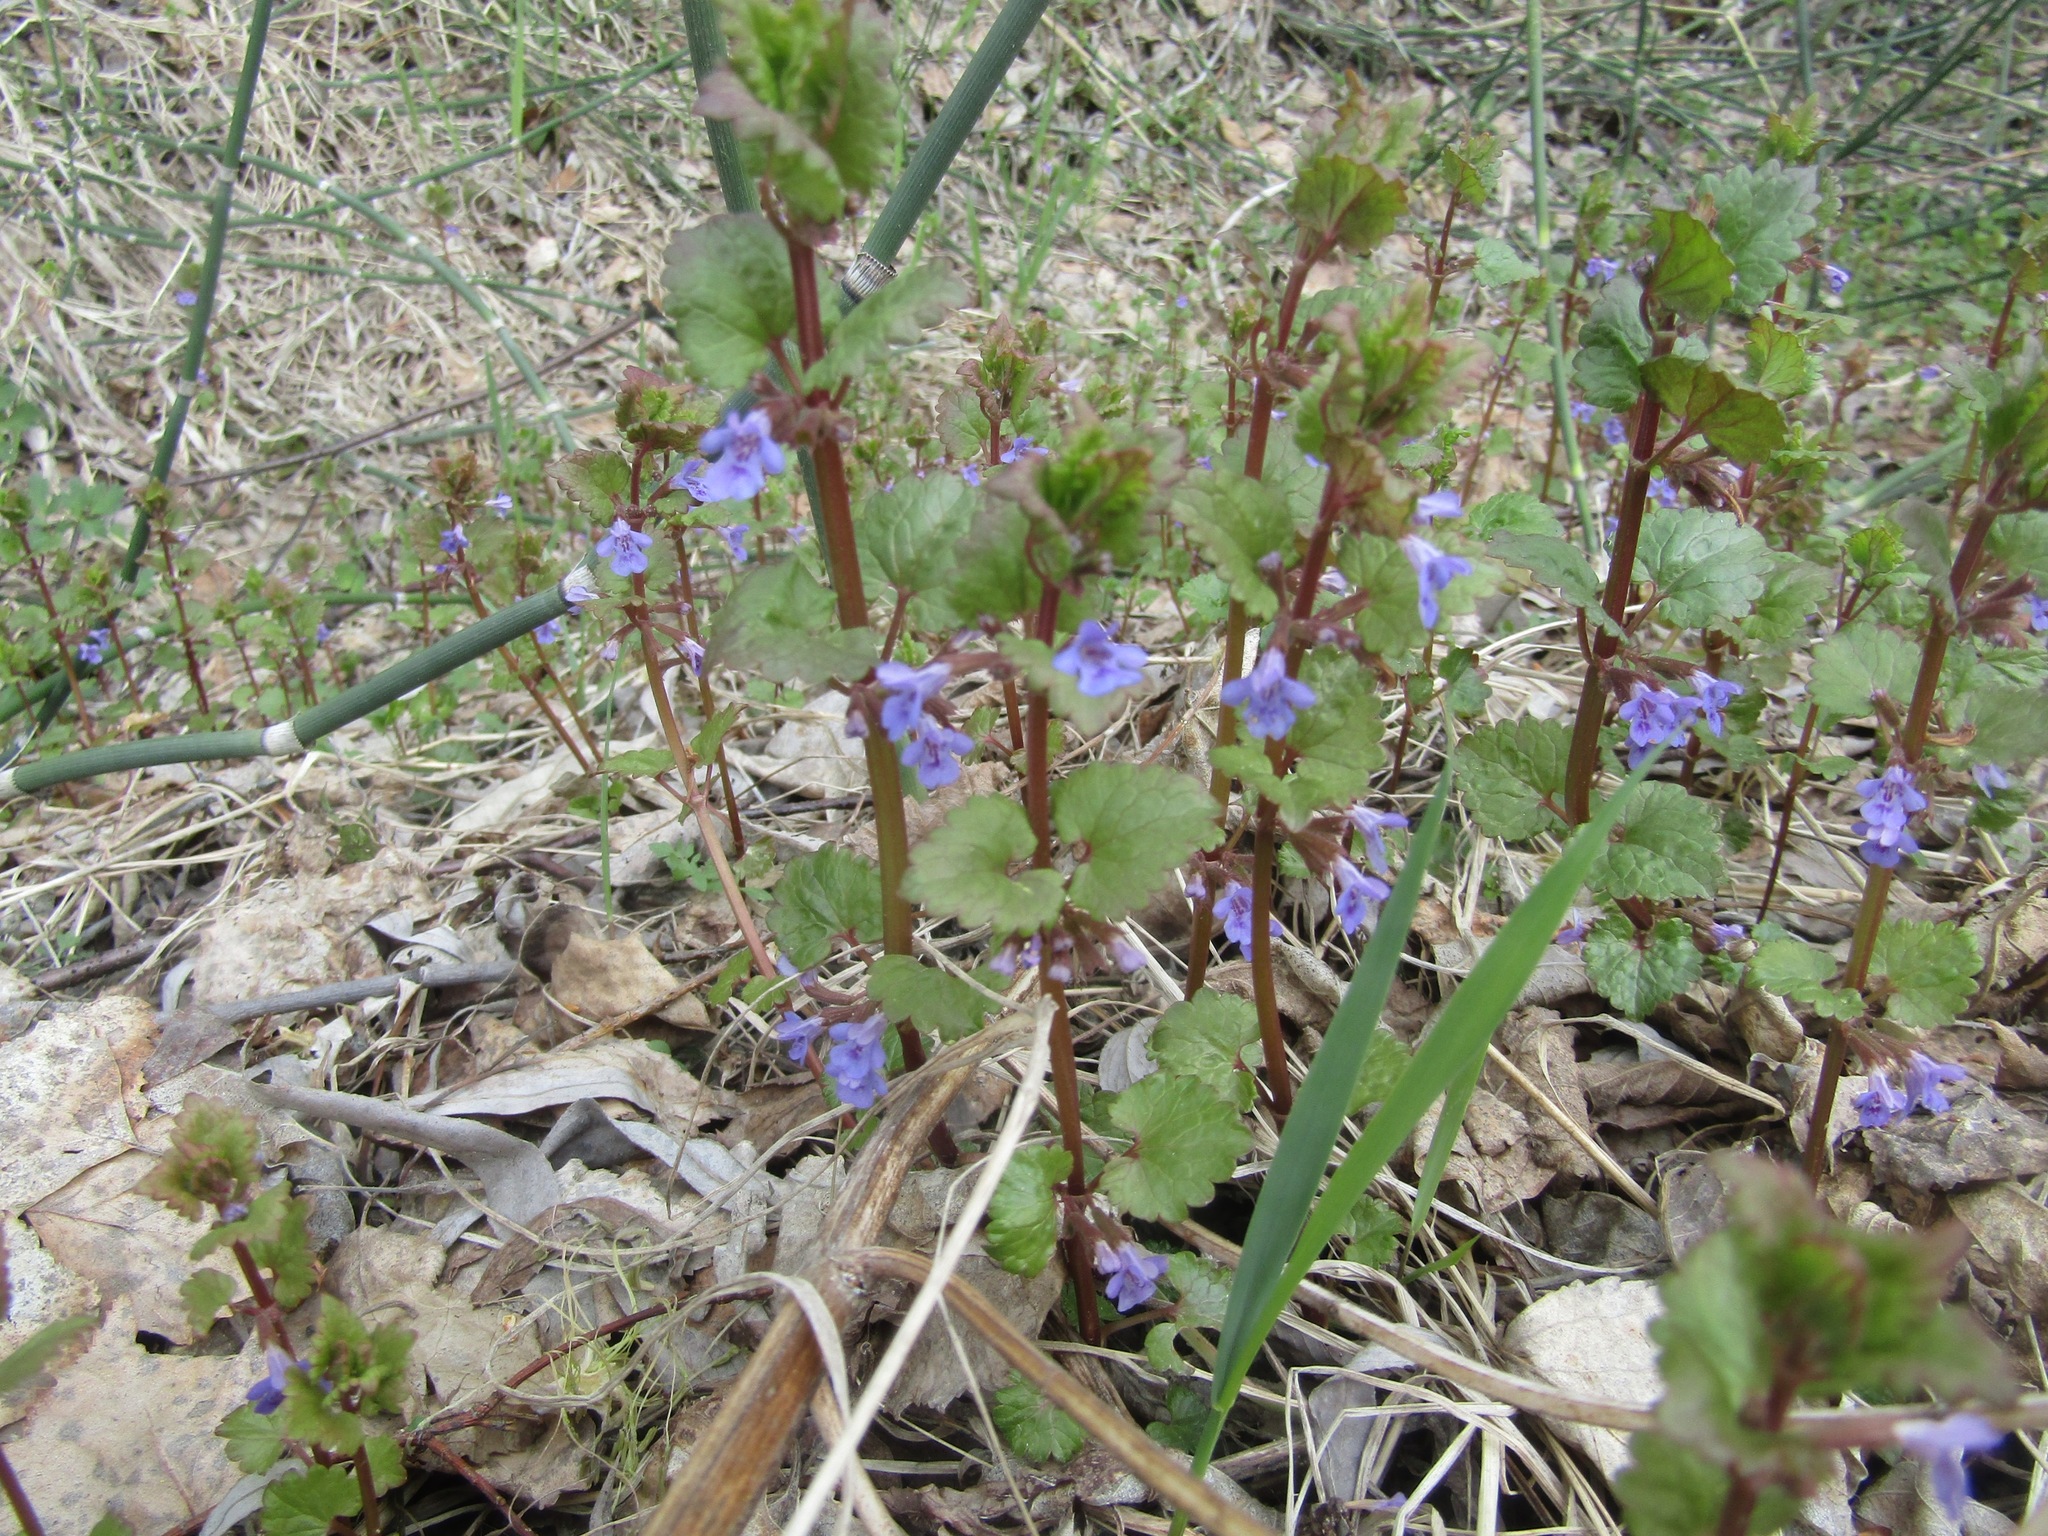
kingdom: Plantae
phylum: Tracheophyta
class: Magnoliopsida
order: Lamiales
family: Lamiaceae
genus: Glechoma
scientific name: Glechoma hederacea
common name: Ground ivy
